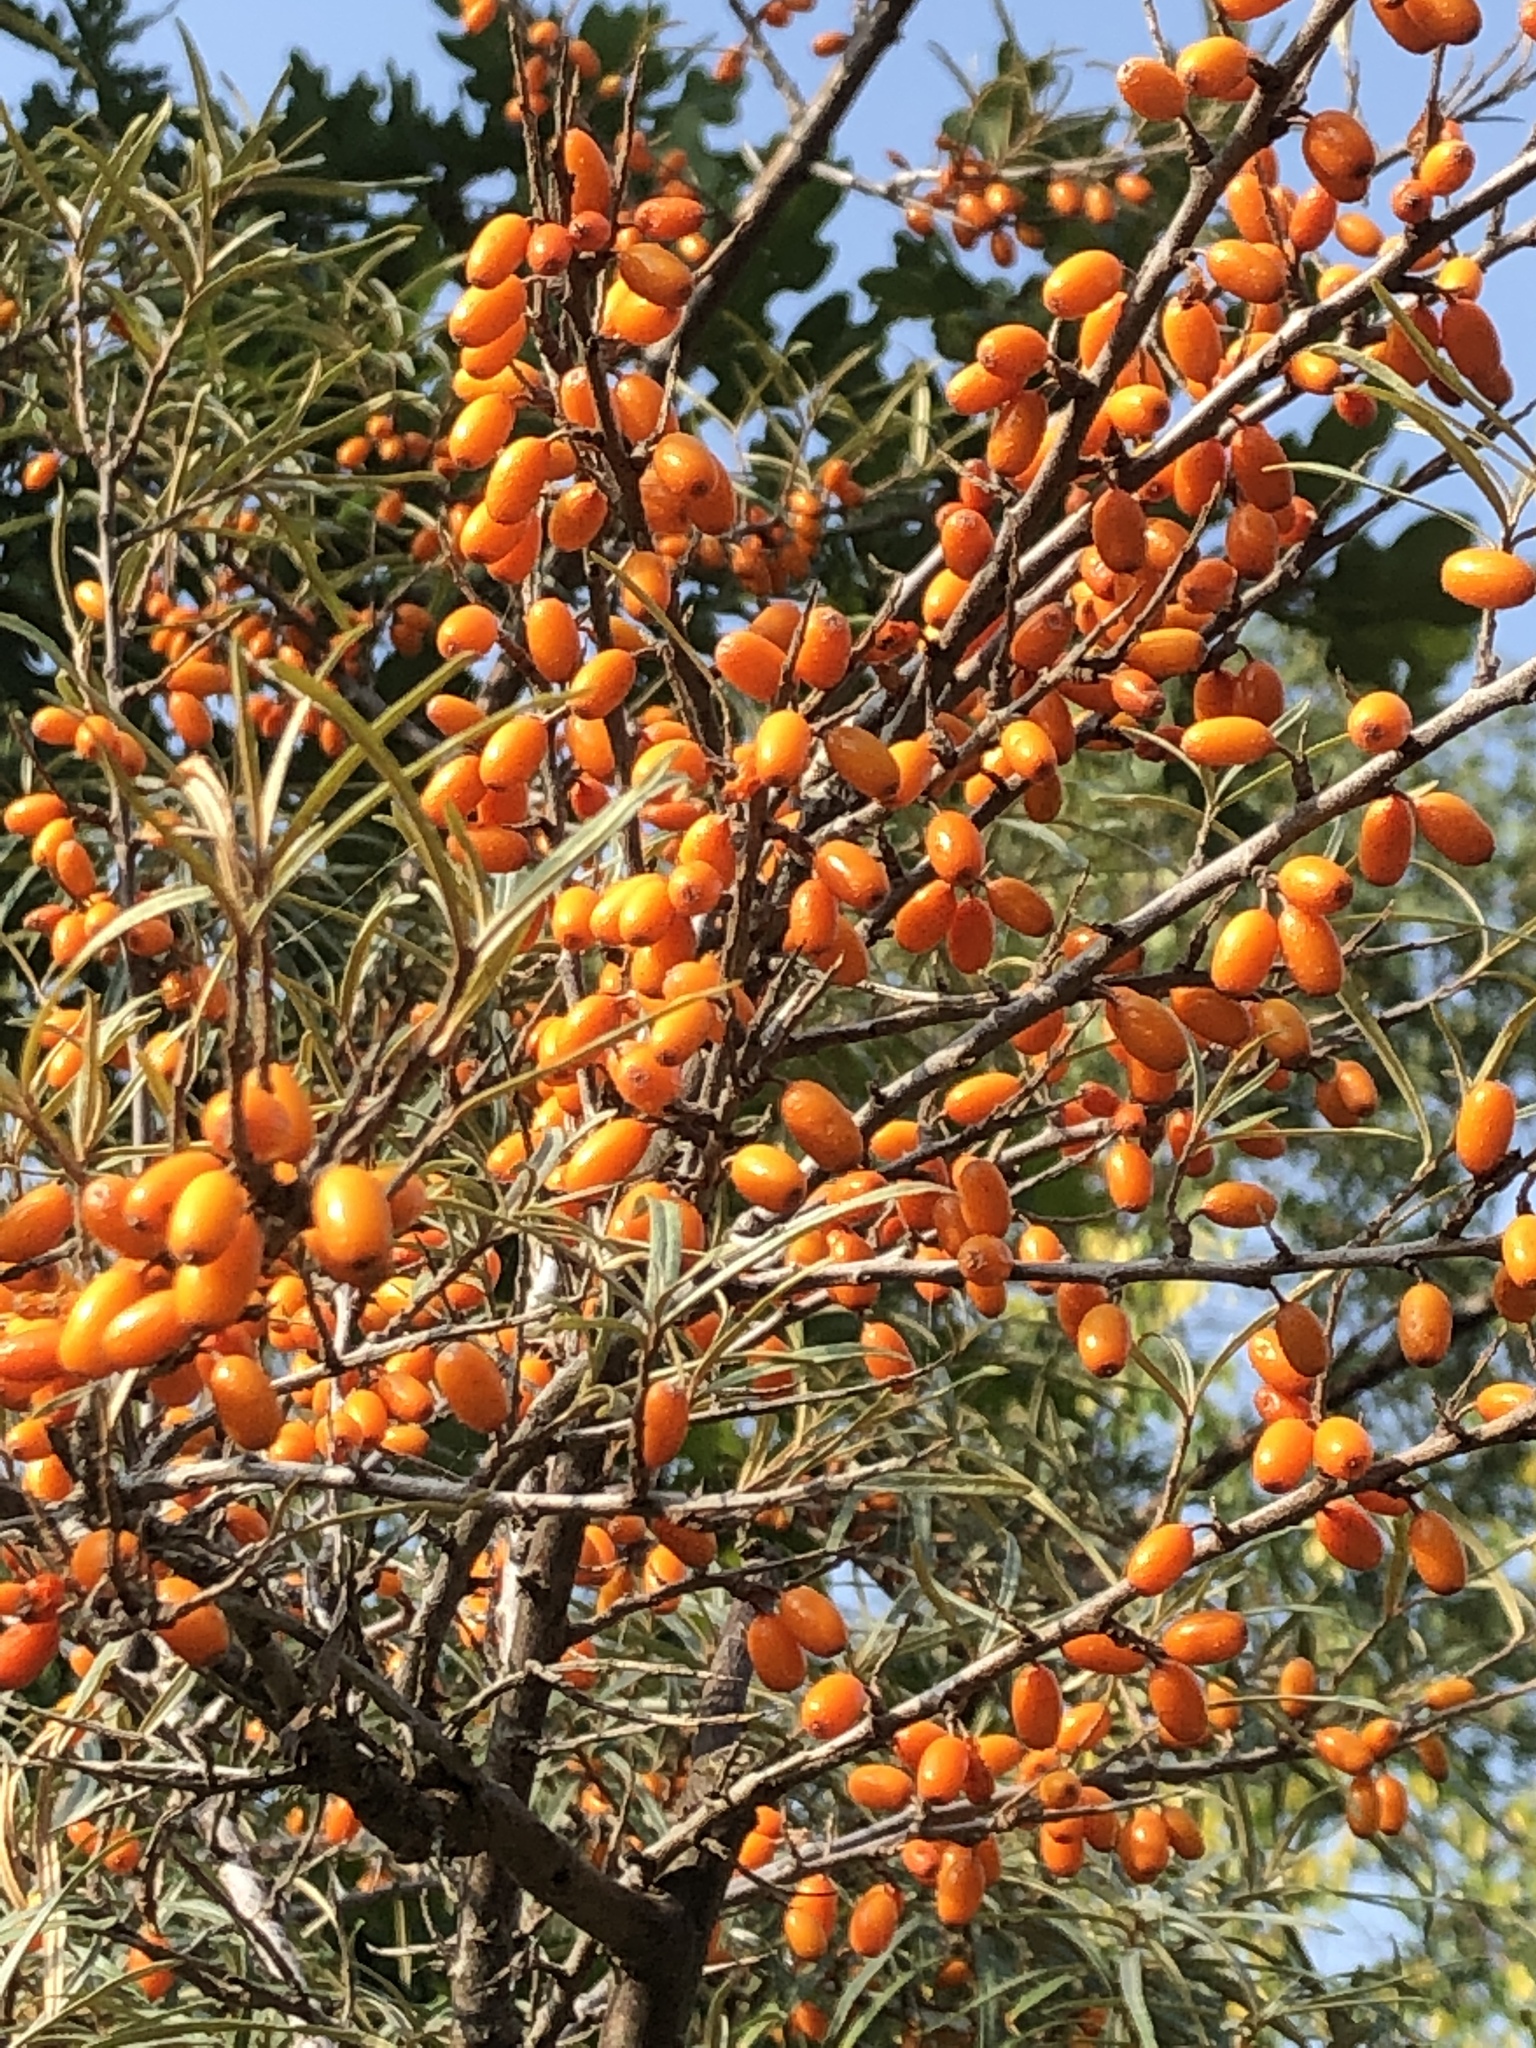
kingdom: Plantae
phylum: Tracheophyta
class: Magnoliopsida
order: Rosales
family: Elaeagnaceae
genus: Hippophae
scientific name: Hippophae rhamnoides
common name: Sea-buckthorn
